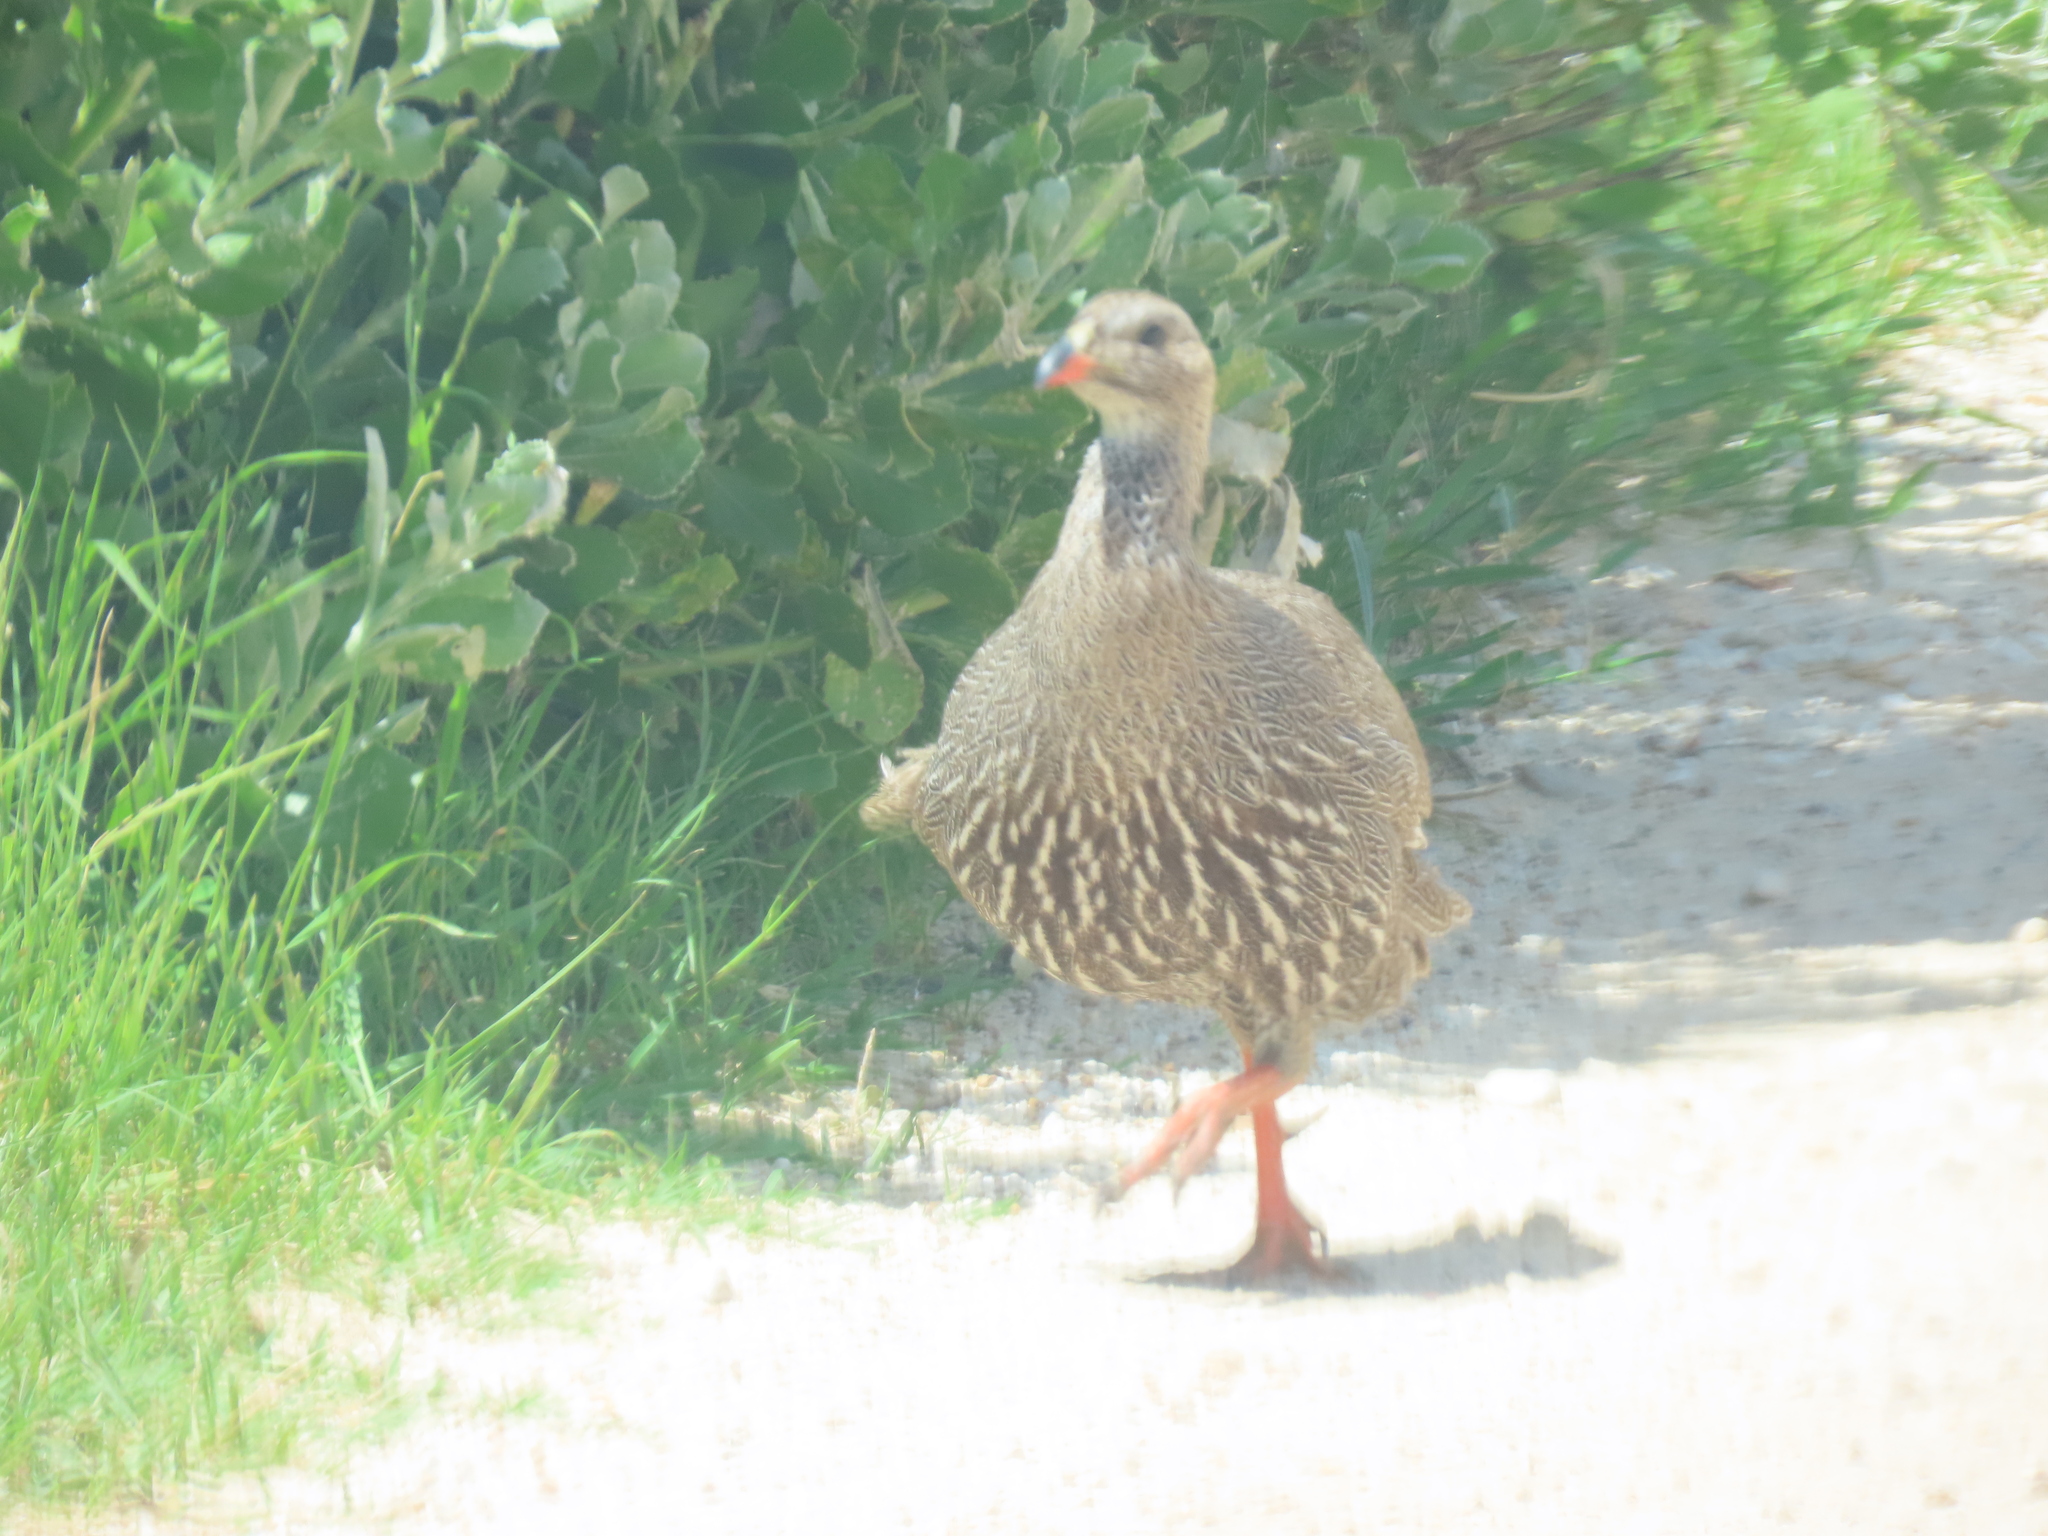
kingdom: Animalia
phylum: Chordata
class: Aves
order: Galliformes
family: Phasianidae
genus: Pternistis
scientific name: Pternistis capensis
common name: Cape spurfowl
